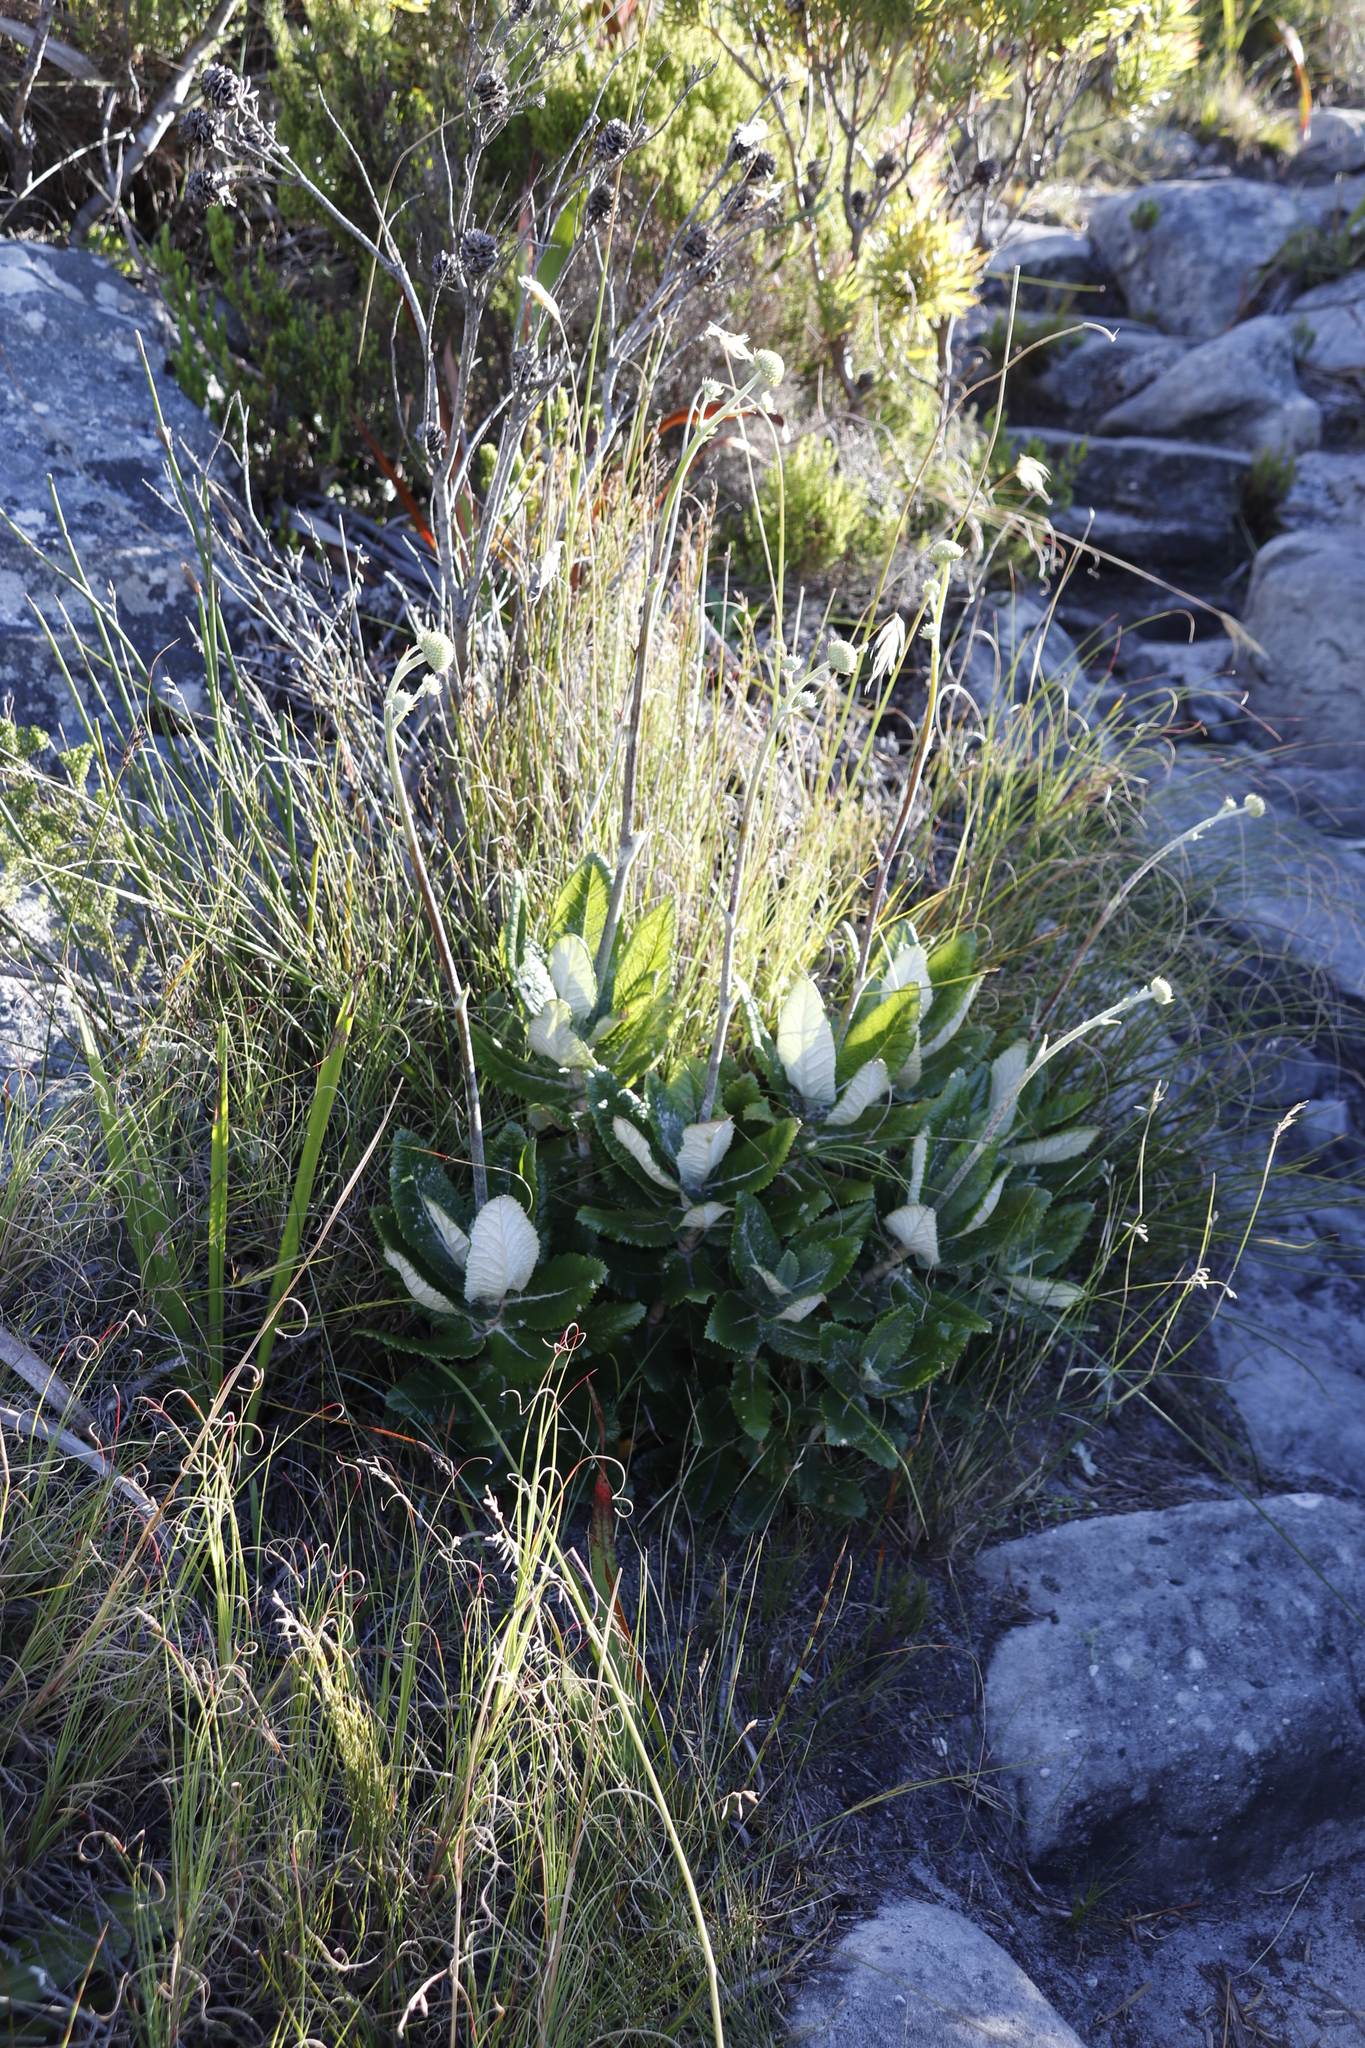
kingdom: Plantae
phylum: Tracheophyta
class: Magnoliopsida
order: Apiales
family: Apiaceae
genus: Hermas
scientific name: Hermas villosa
